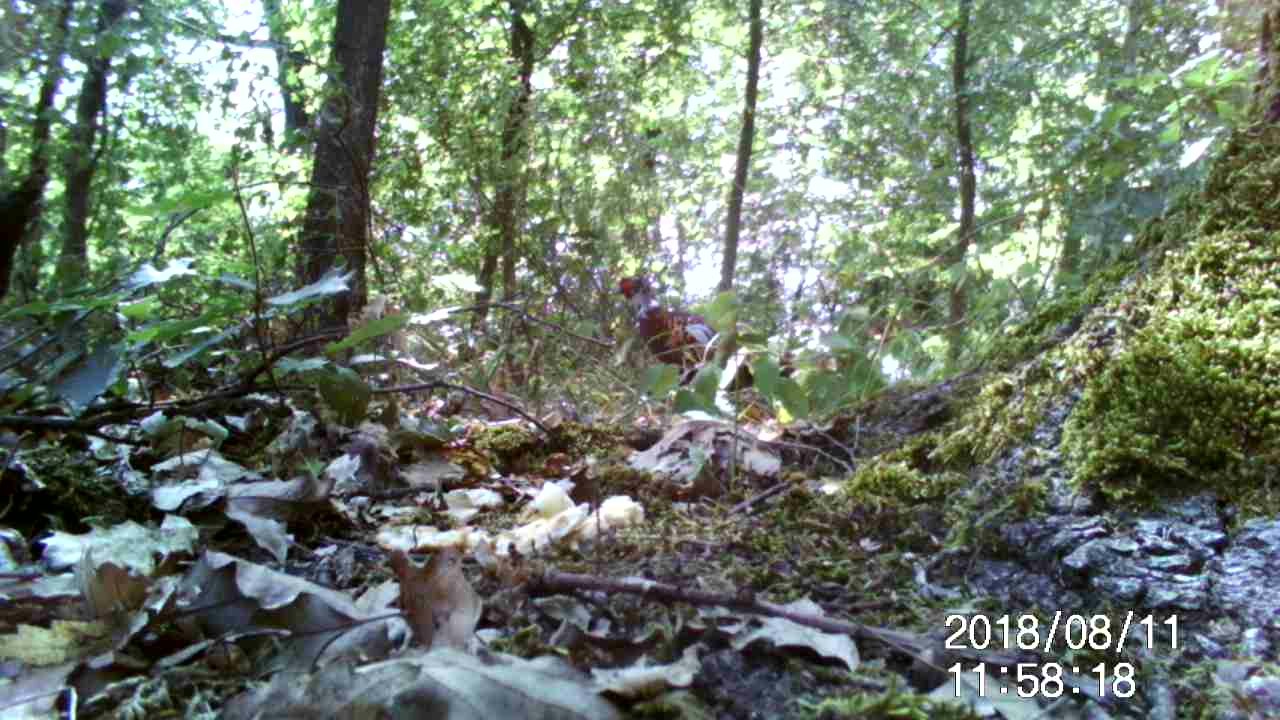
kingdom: Animalia
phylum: Chordata
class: Aves
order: Galliformes
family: Phasianidae
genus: Phasianus
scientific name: Phasianus colchicus
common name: Common pheasant
